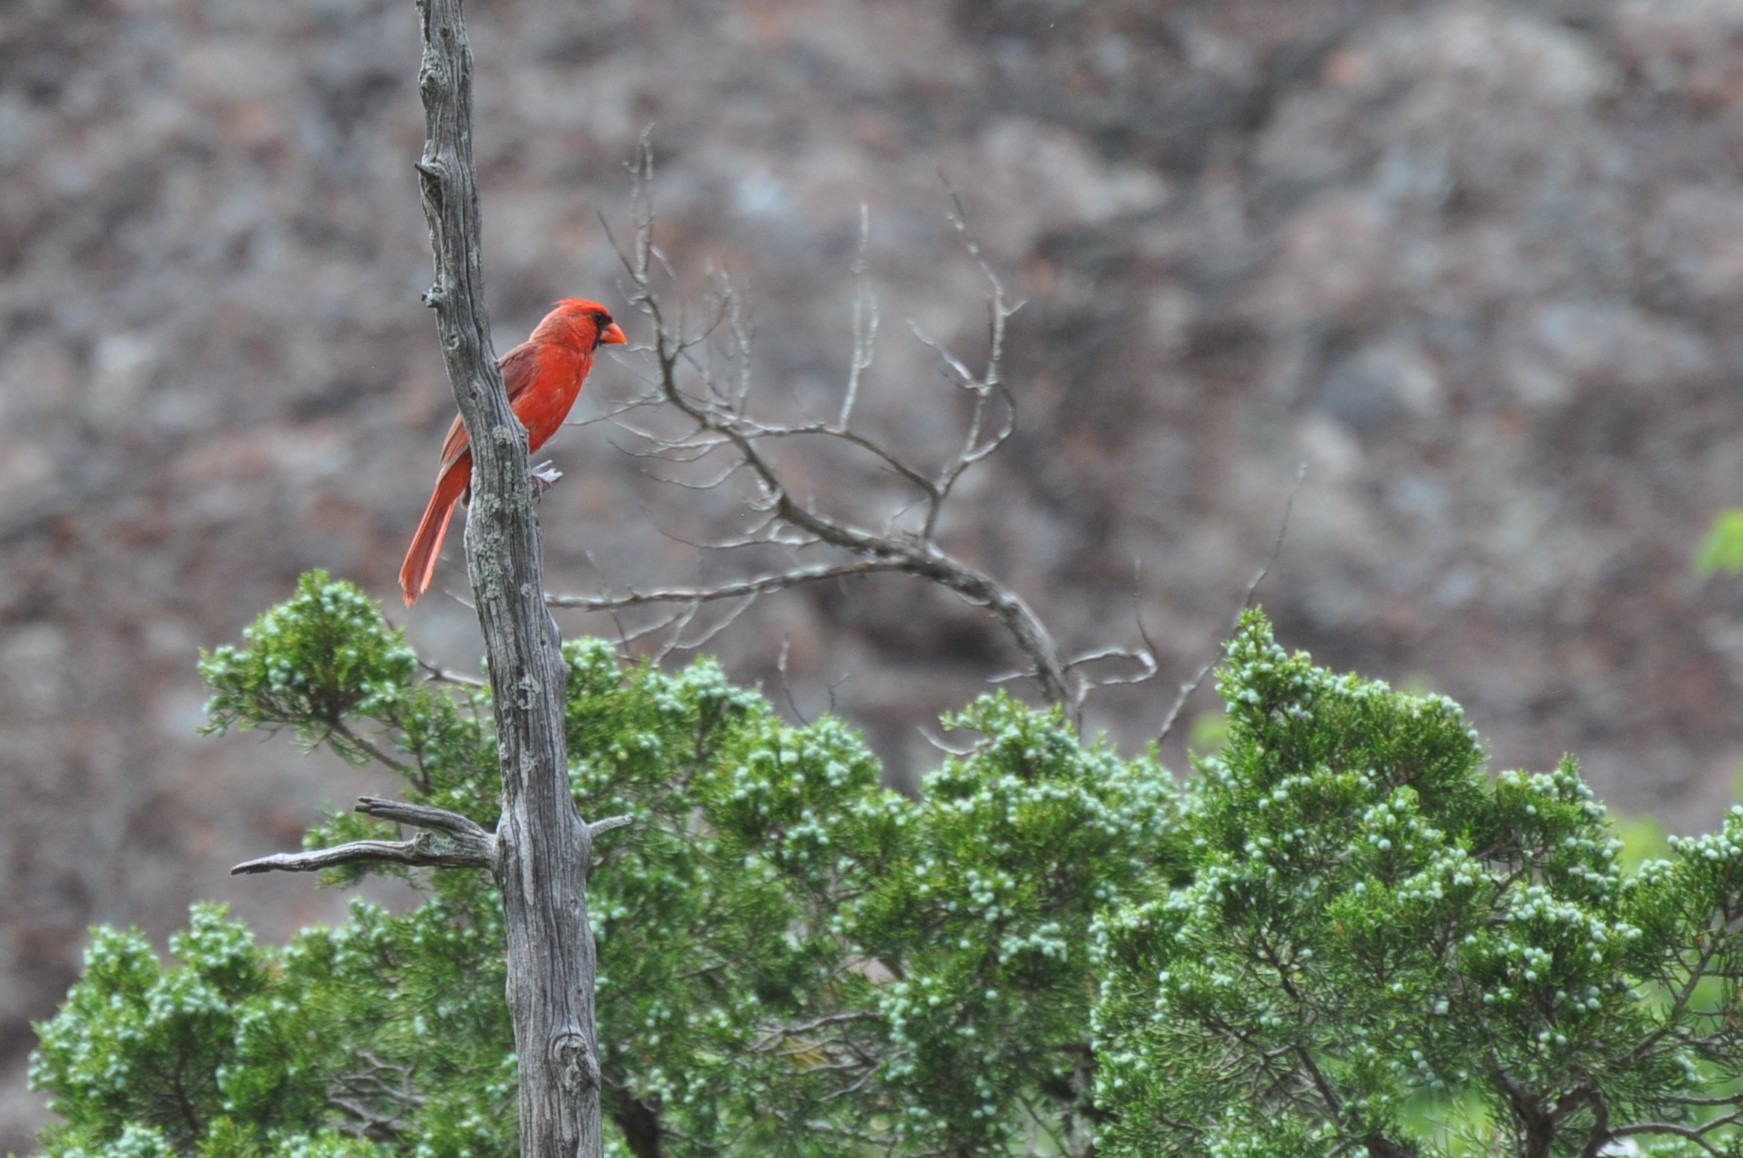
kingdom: Animalia
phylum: Chordata
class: Aves
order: Passeriformes
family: Cardinalidae
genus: Cardinalis
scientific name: Cardinalis cardinalis
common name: Northern cardinal
